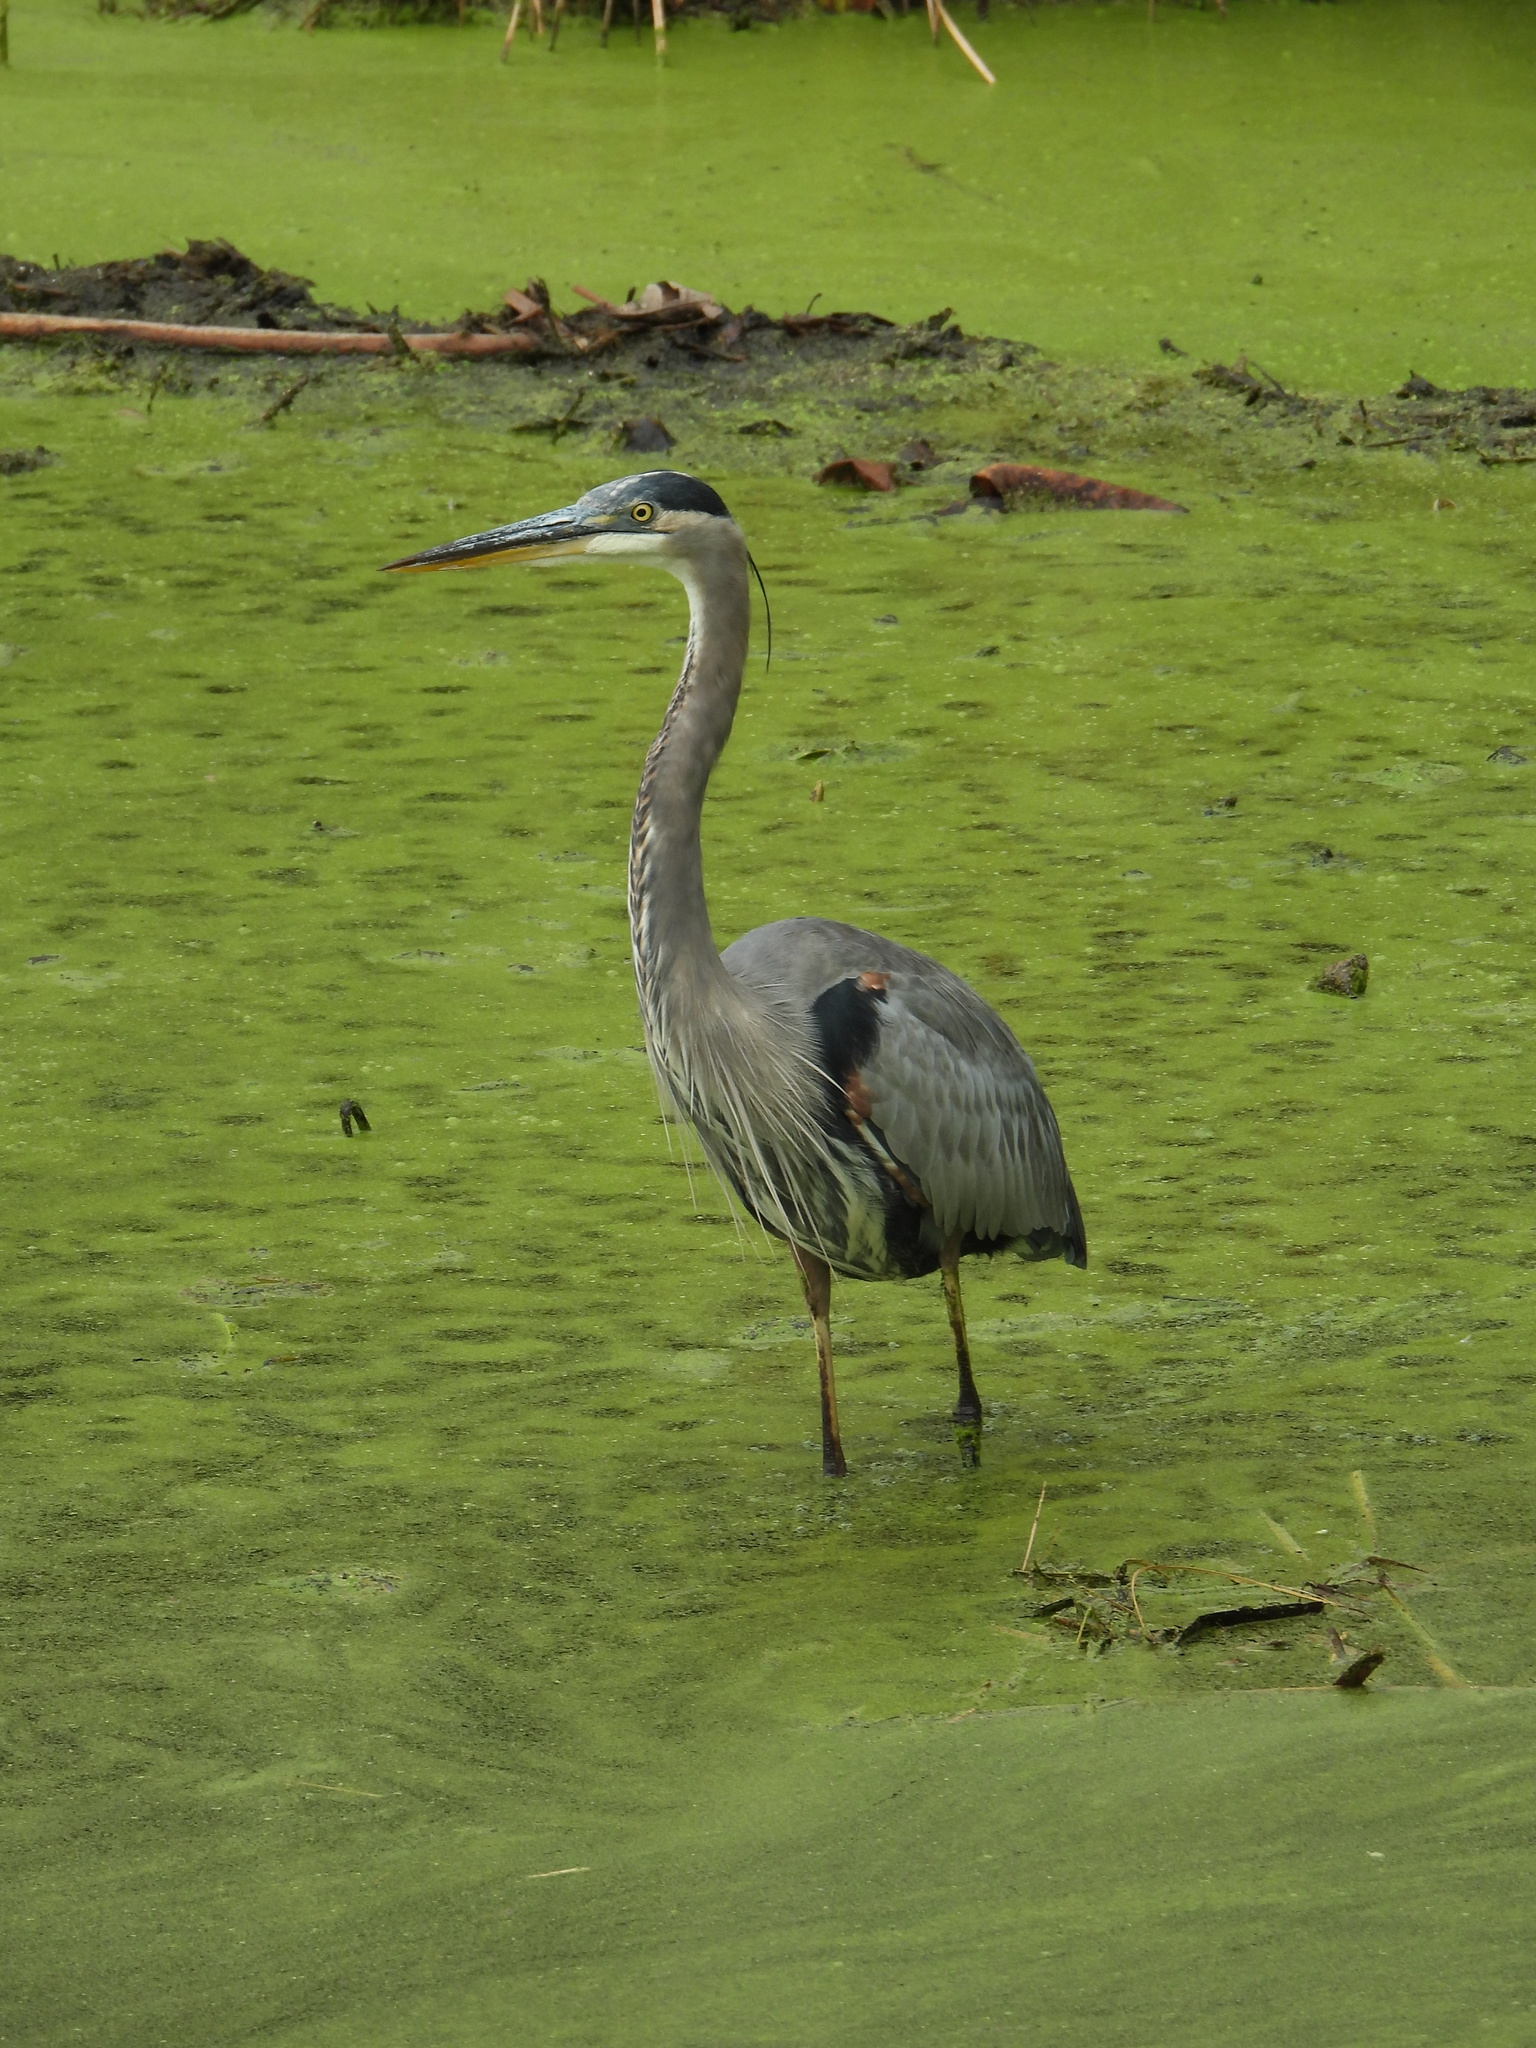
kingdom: Animalia
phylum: Chordata
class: Aves
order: Pelecaniformes
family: Ardeidae
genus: Ardea
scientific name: Ardea herodias
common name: Great blue heron
